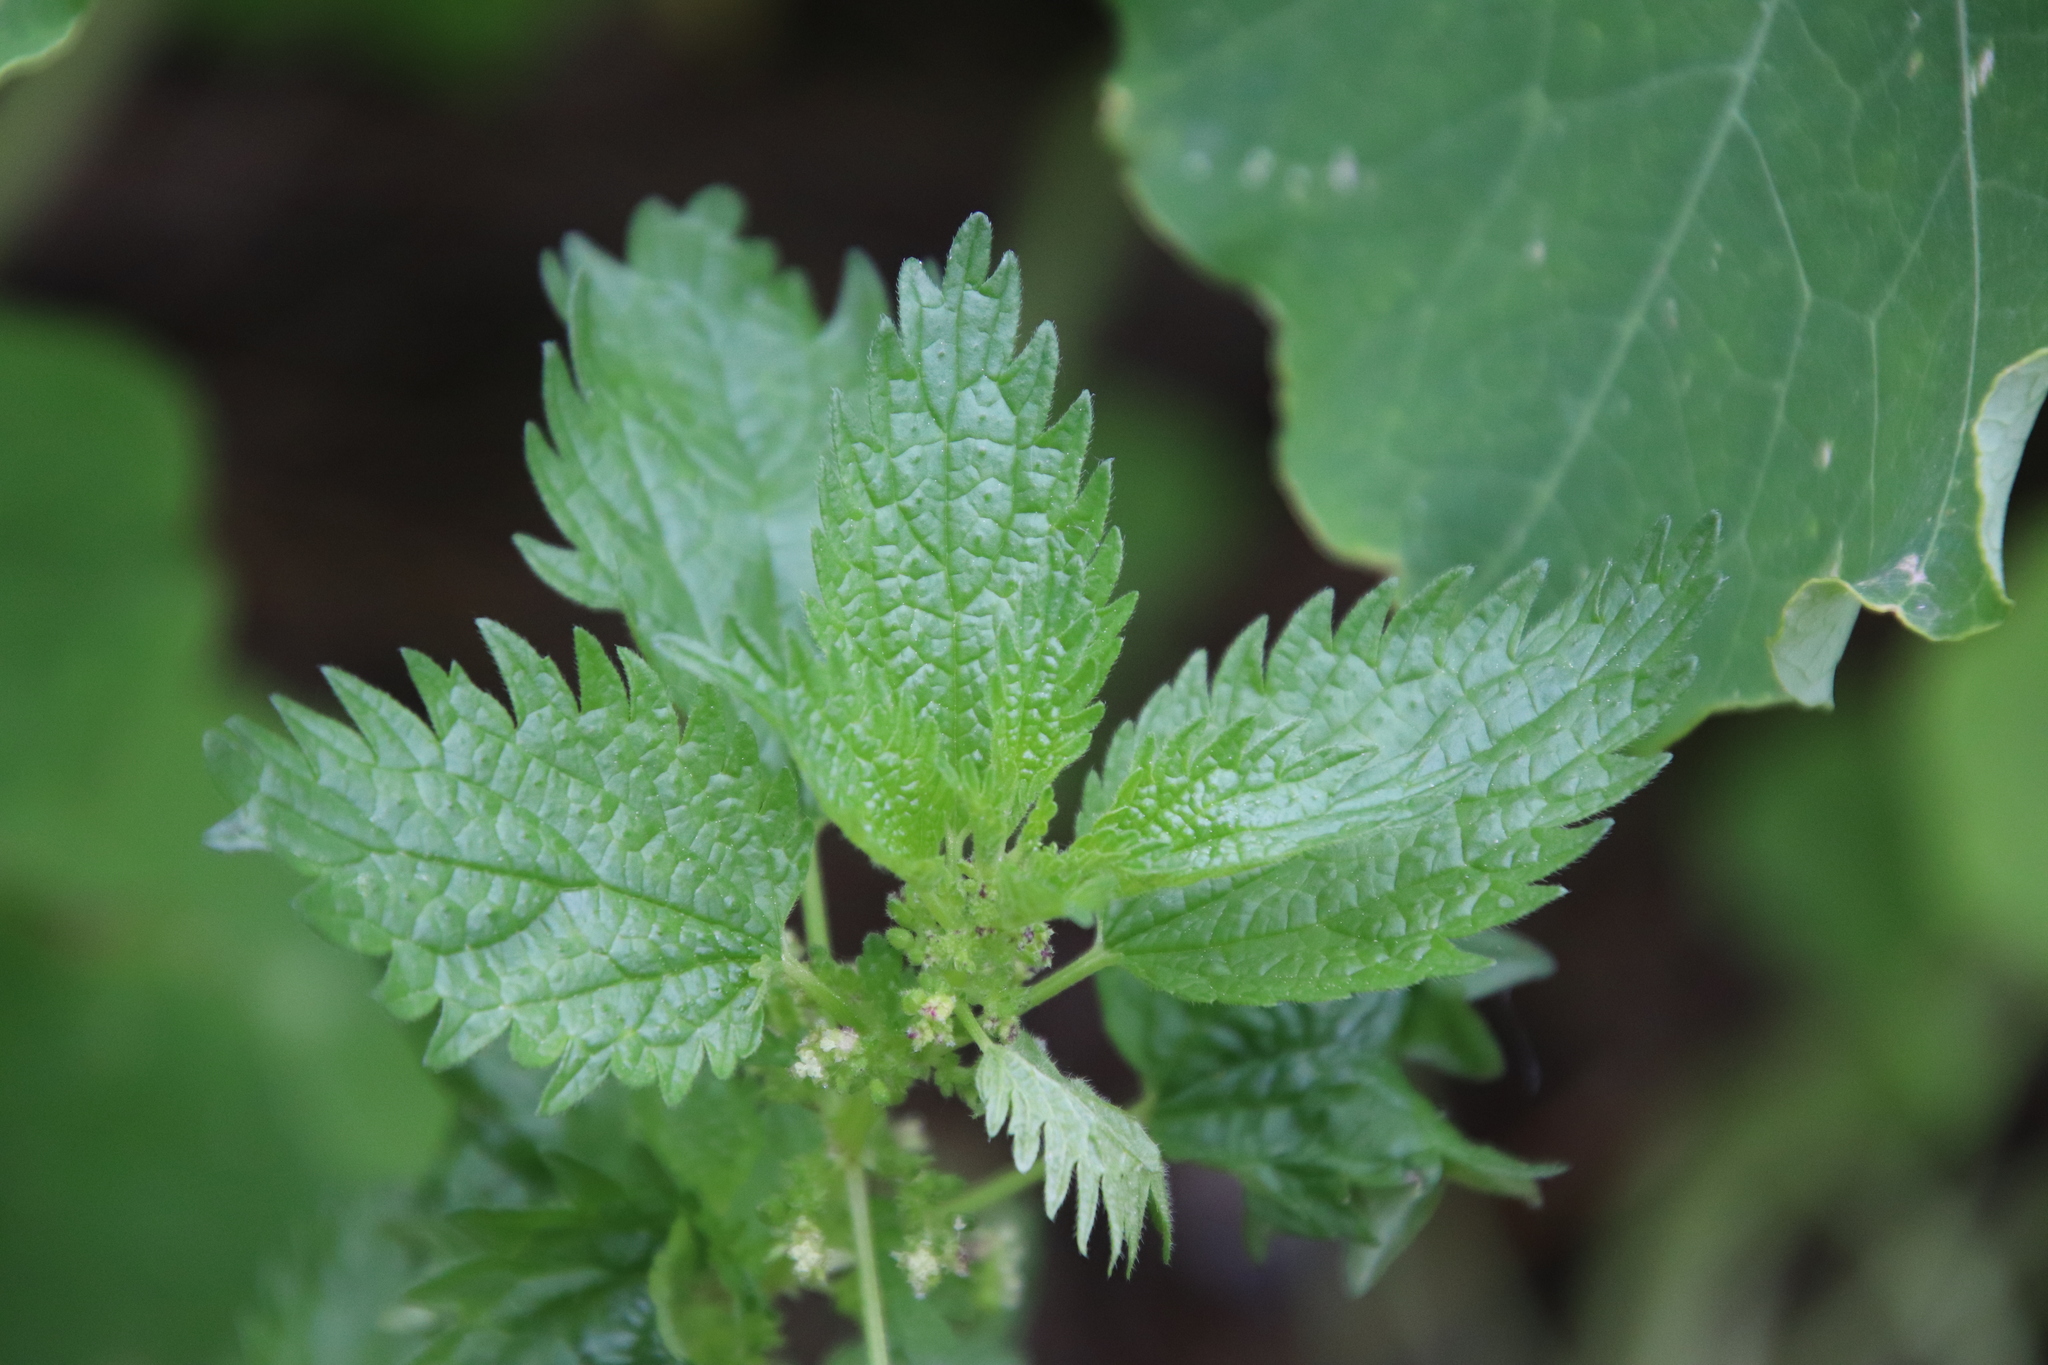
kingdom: Plantae
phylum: Tracheophyta
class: Magnoliopsida
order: Rosales
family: Urticaceae
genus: Urtica
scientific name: Urtica urens
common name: Dwarf nettle
